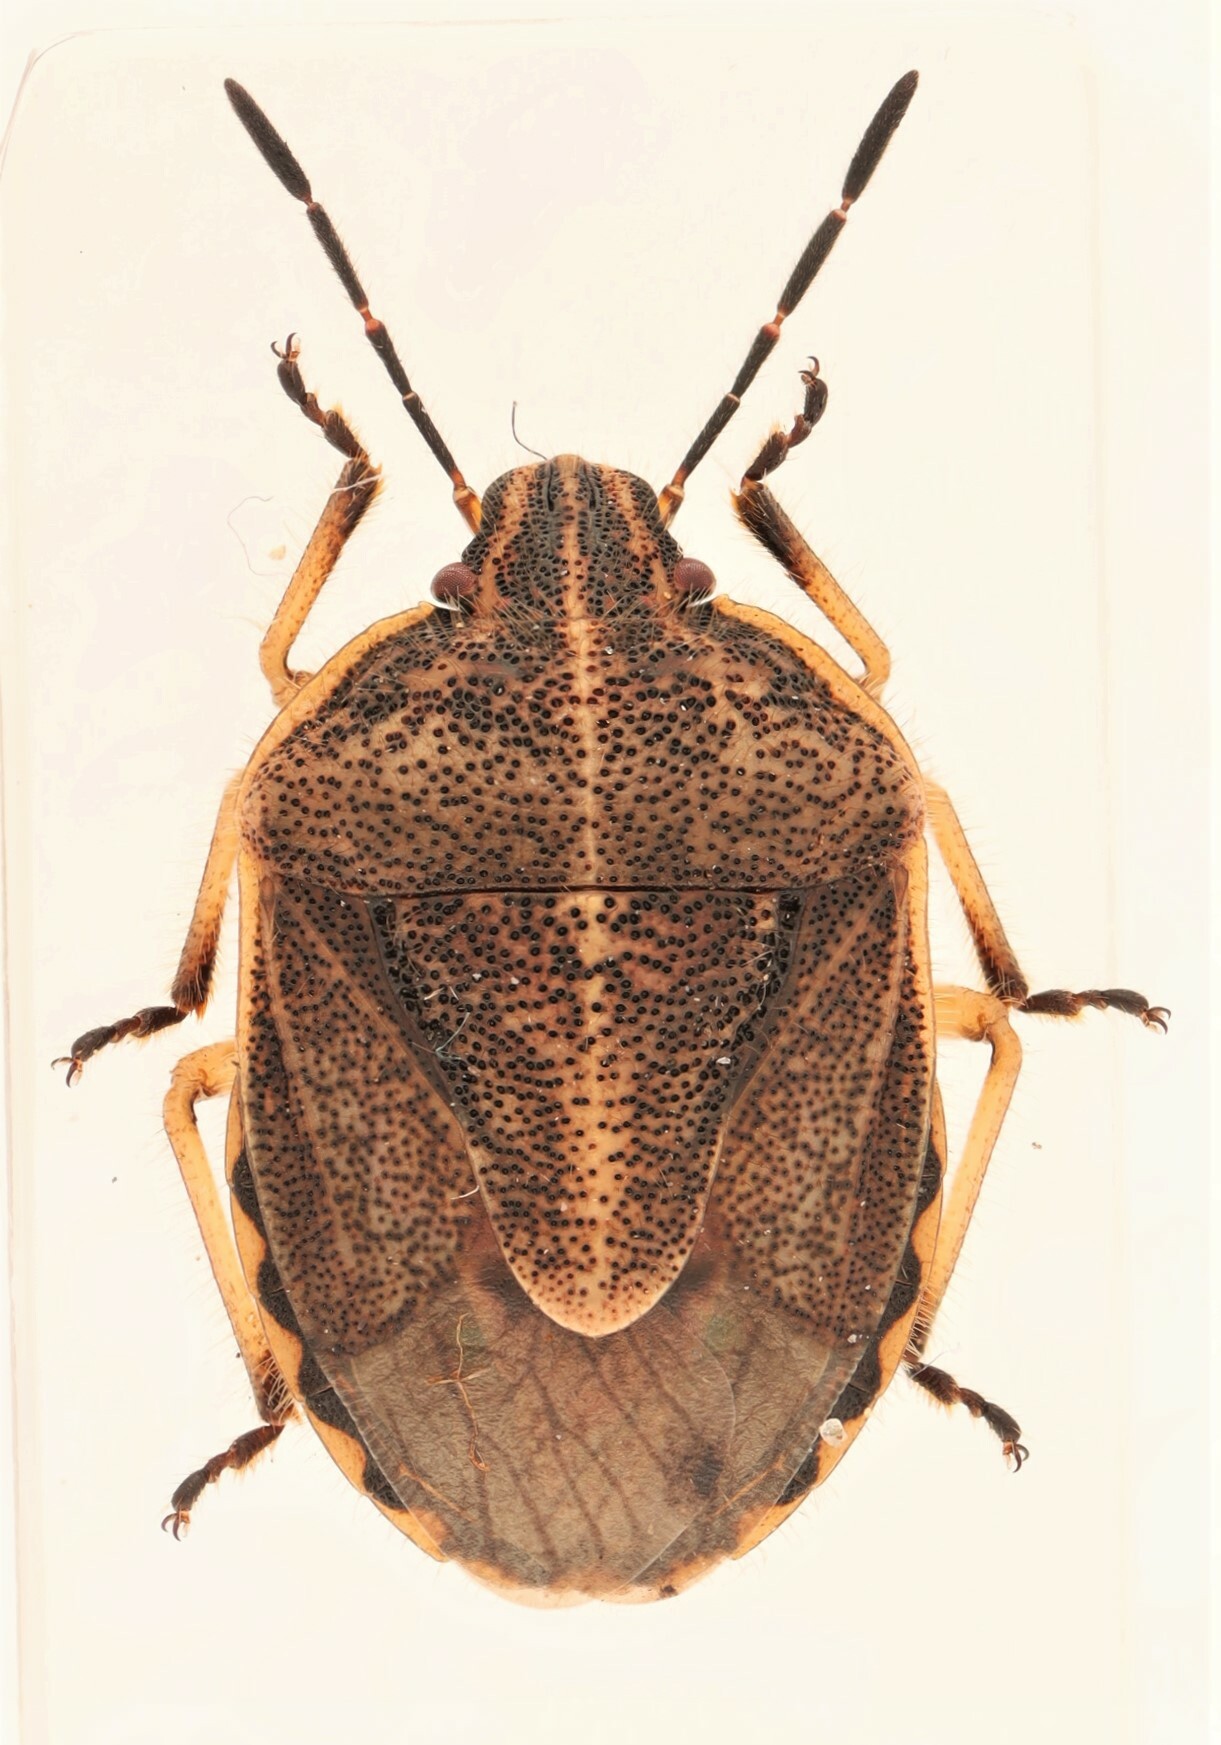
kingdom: Animalia
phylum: Arthropoda
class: Insecta
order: Hemiptera
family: Pentatomidae
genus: Trichopepla
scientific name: Trichopepla atricornis
